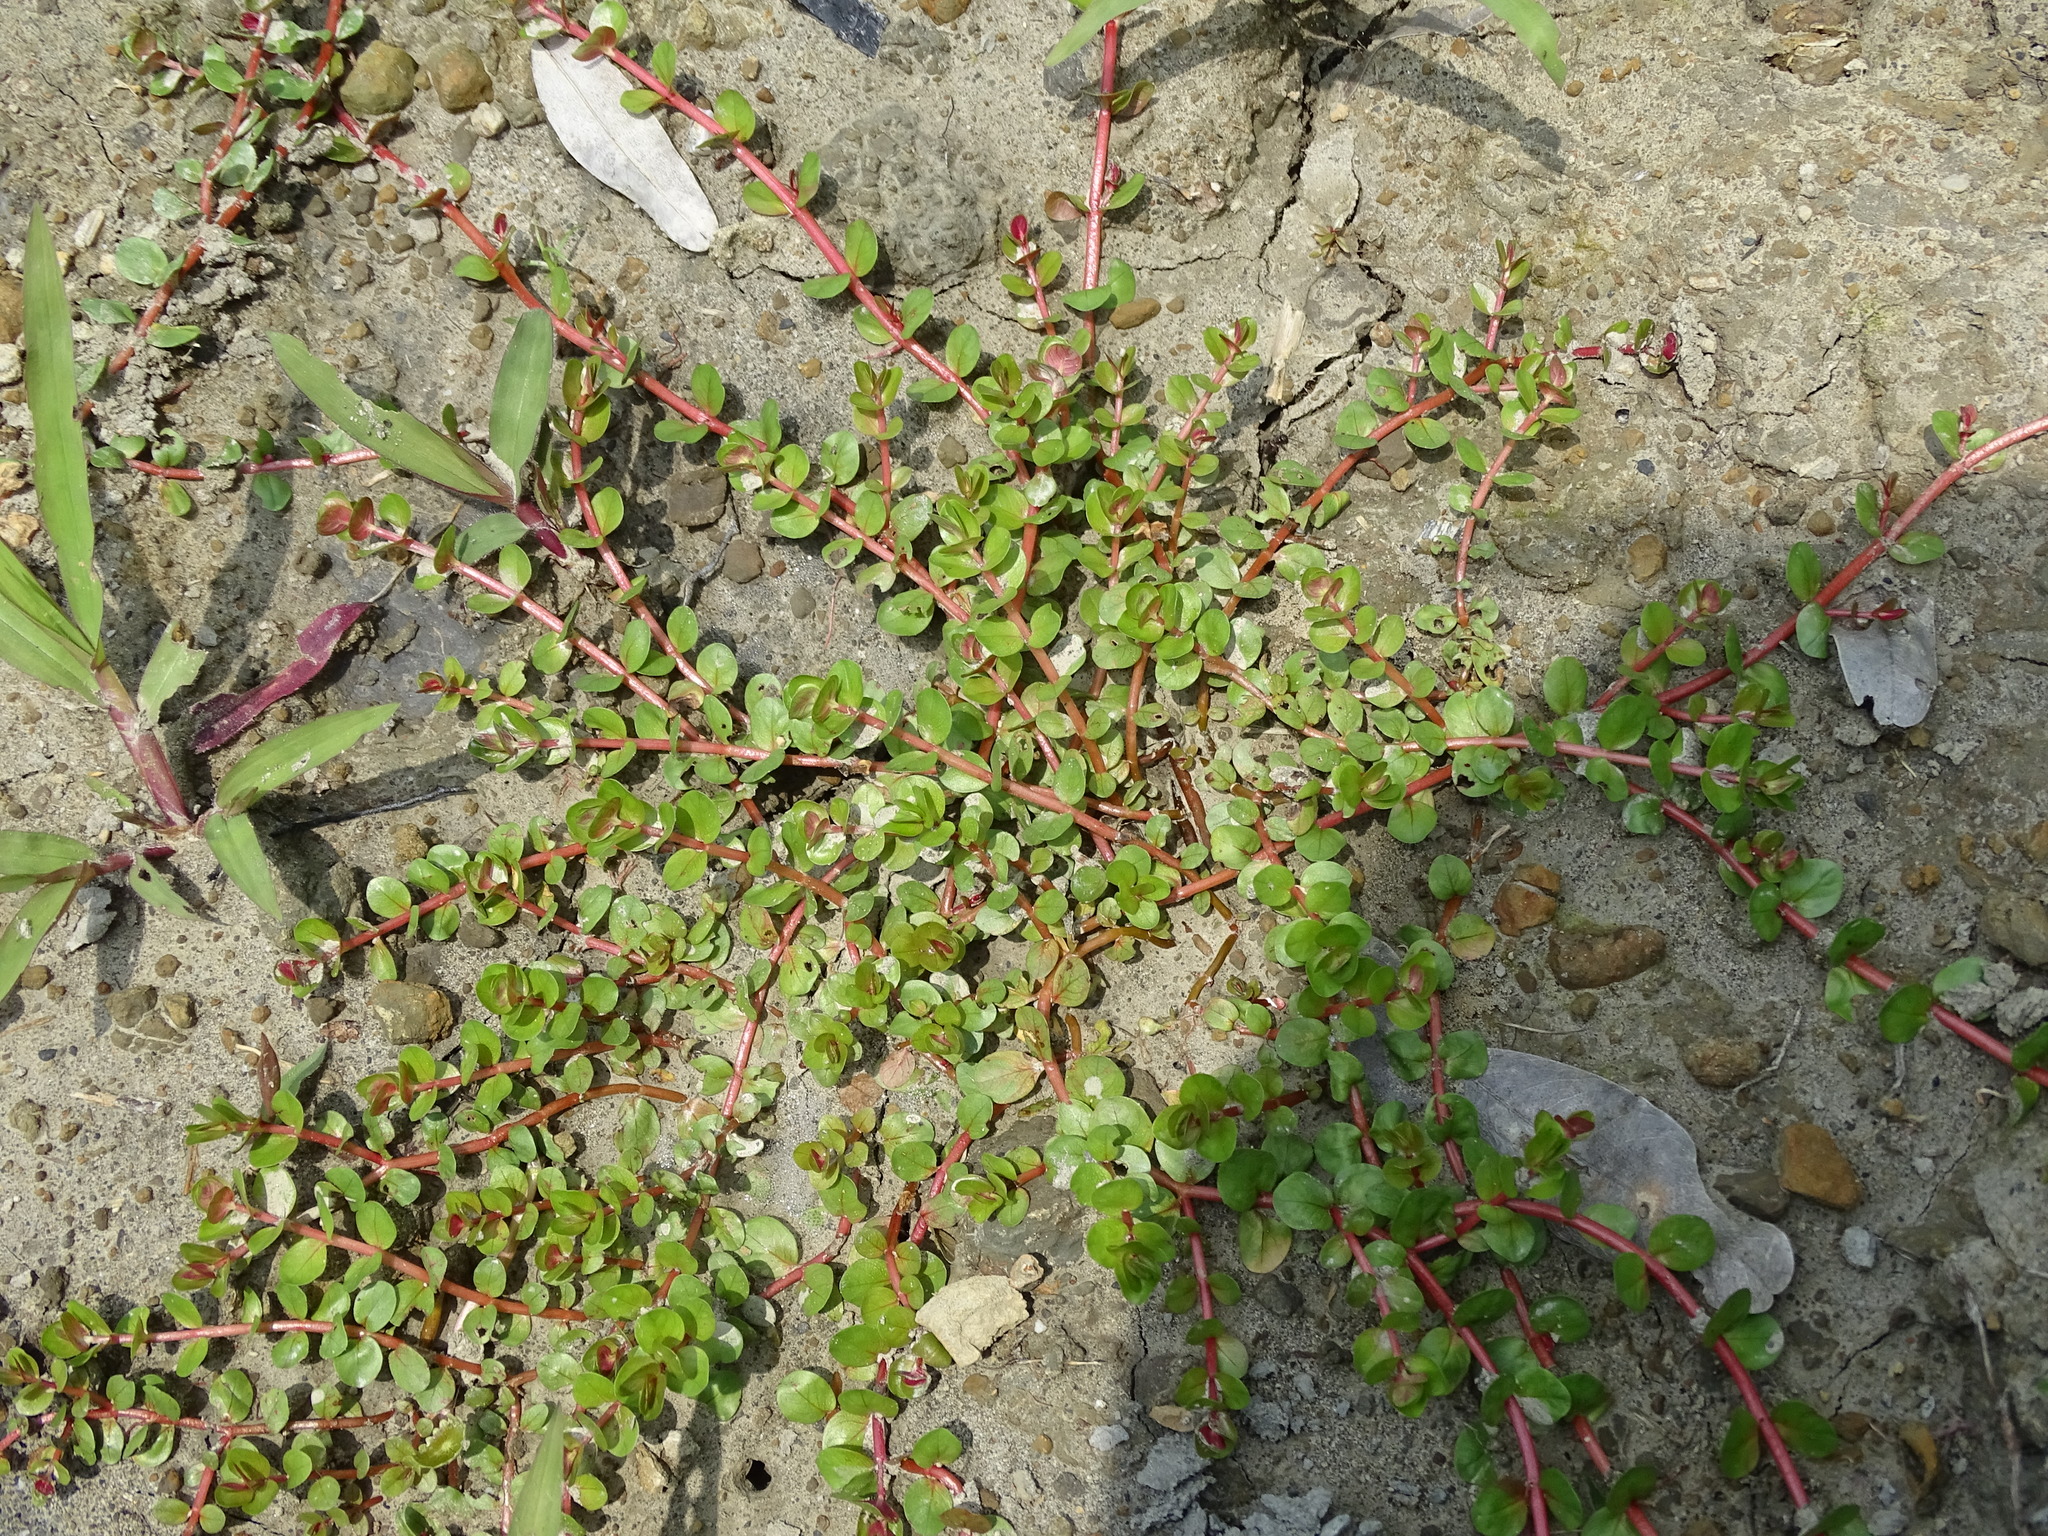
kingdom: Plantae
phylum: Tracheophyta
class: Magnoliopsida
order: Myrtales
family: Lythraceae
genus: Rotala
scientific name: Rotala rotundifolia
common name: Roundleaf toothcup
